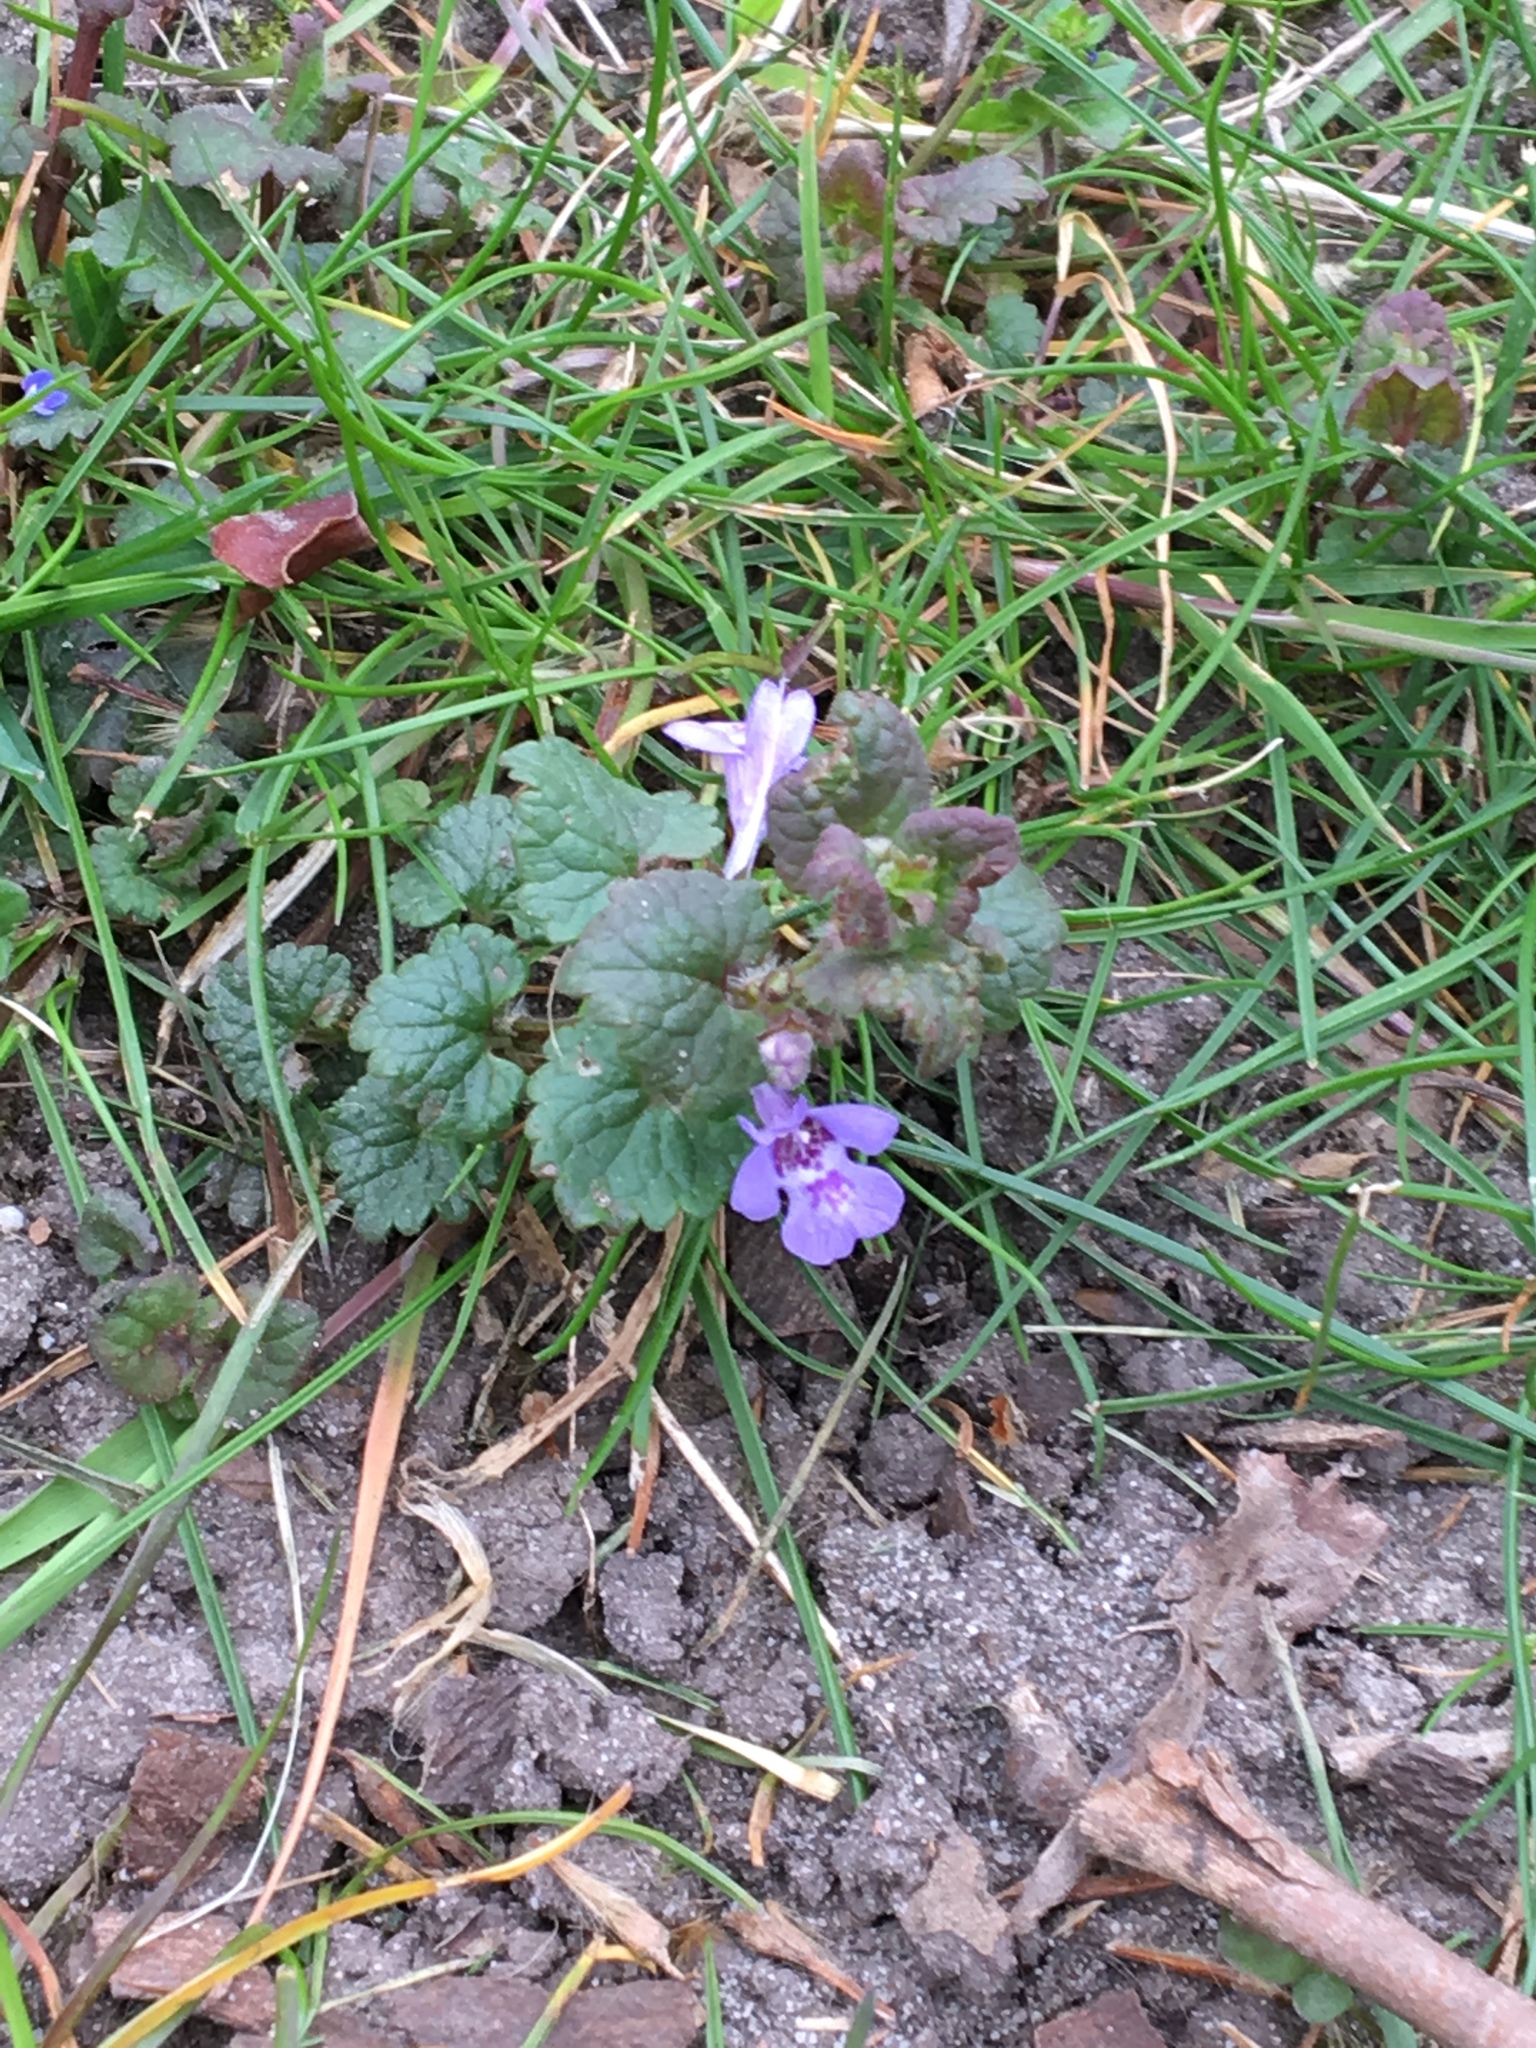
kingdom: Plantae
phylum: Tracheophyta
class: Magnoliopsida
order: Lamiales
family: Lamiaceae
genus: Glechoma
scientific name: Glechoma hederacea
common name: Ground ivy
